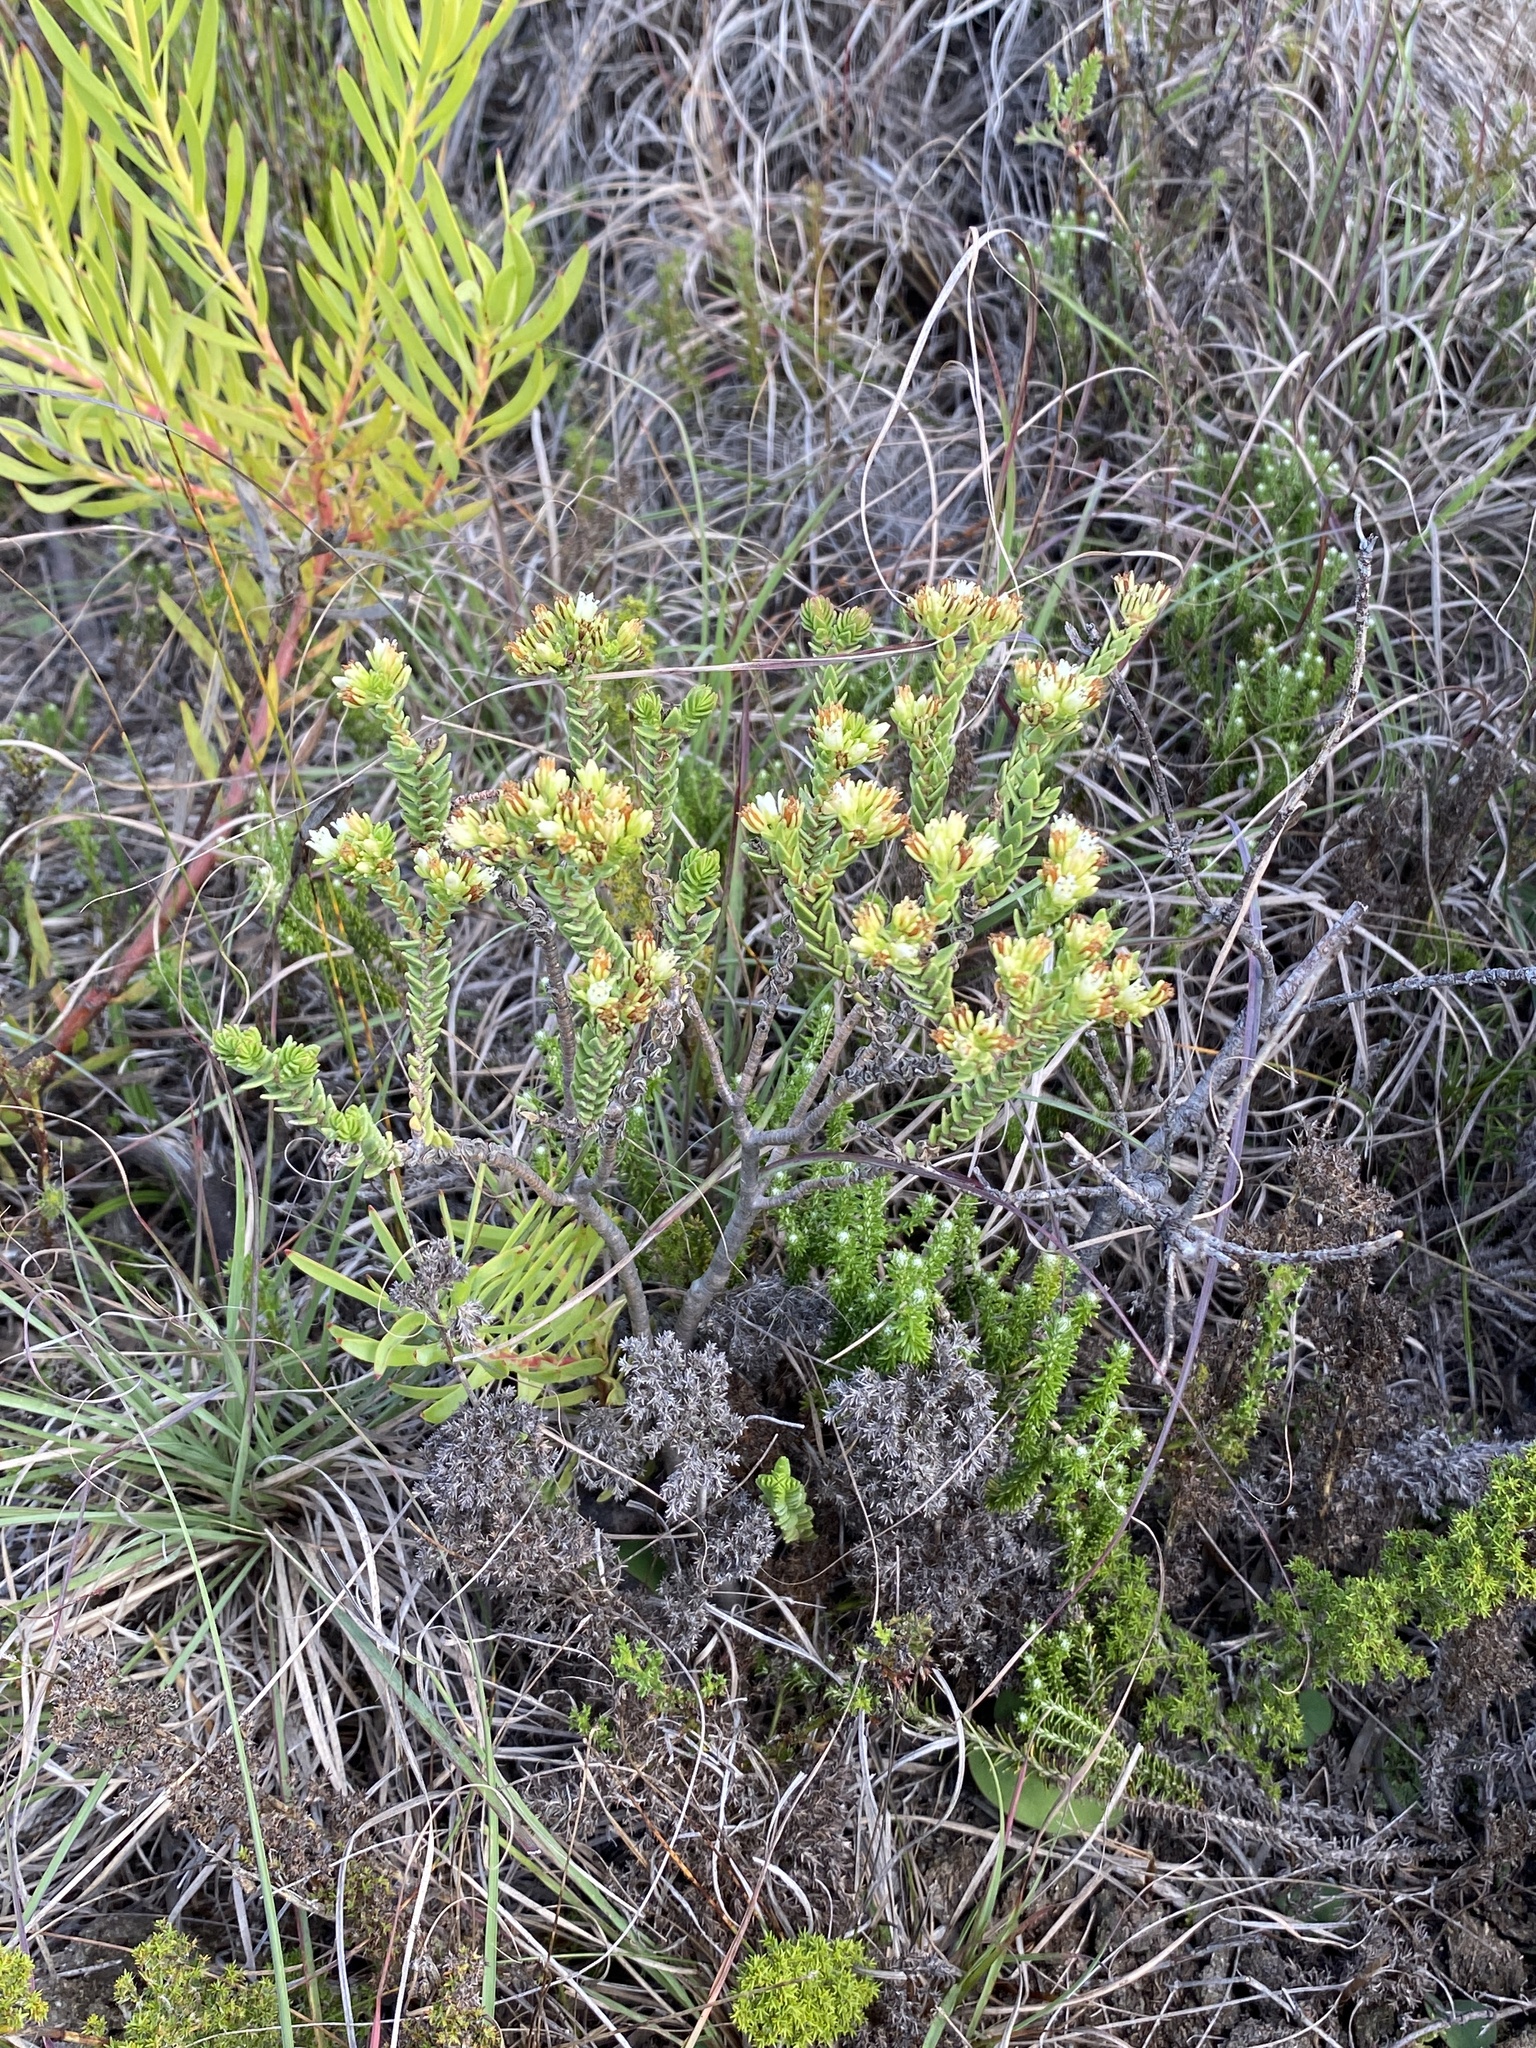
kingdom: Plantae
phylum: Tracheophyta
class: Magnoliopsida
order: Saxifragales
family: Crassulaceae
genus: Crassula
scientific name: Crassula ericoides
